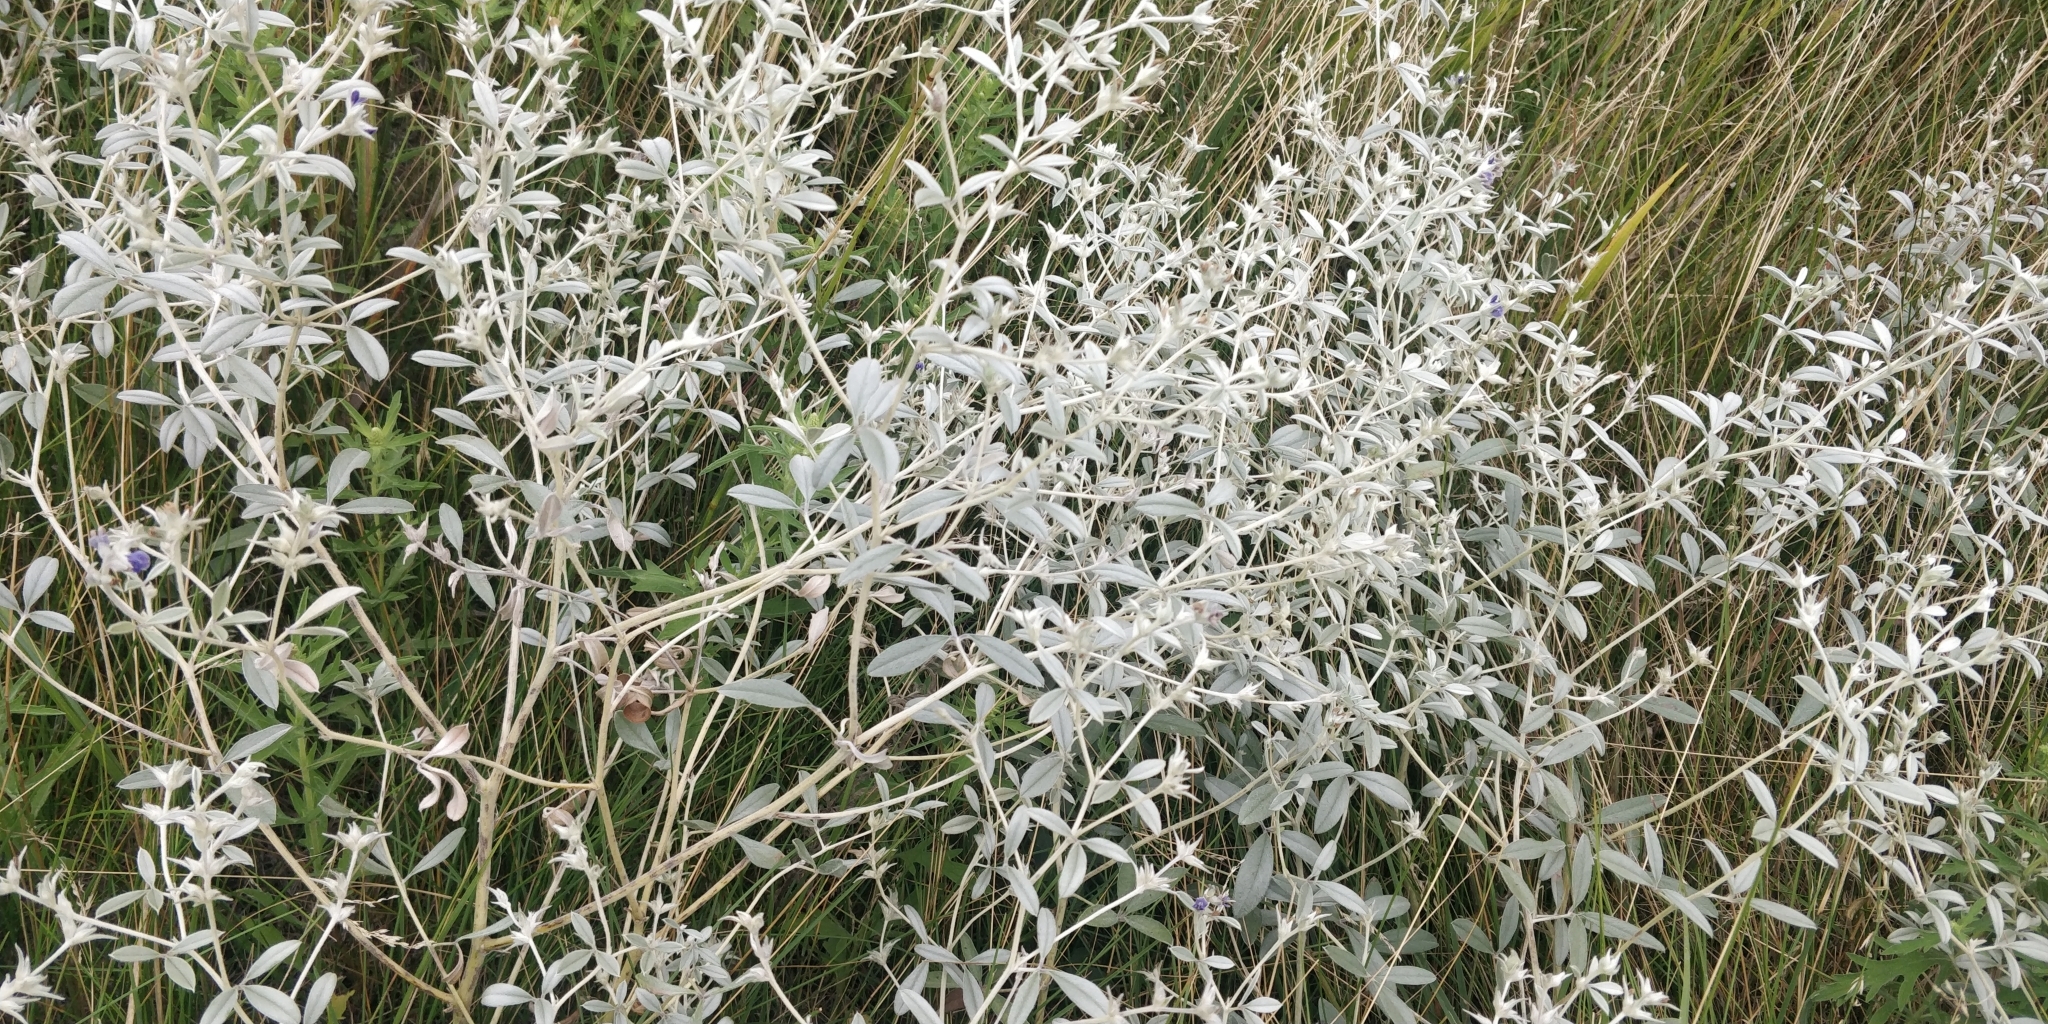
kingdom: Plantae
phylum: Tracheophyta
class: Magnoliopsida
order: Fabales
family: Fabaceae
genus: Pediomelum
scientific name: Pediomelum argophyllum
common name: Silver-leaved indian breadroot
